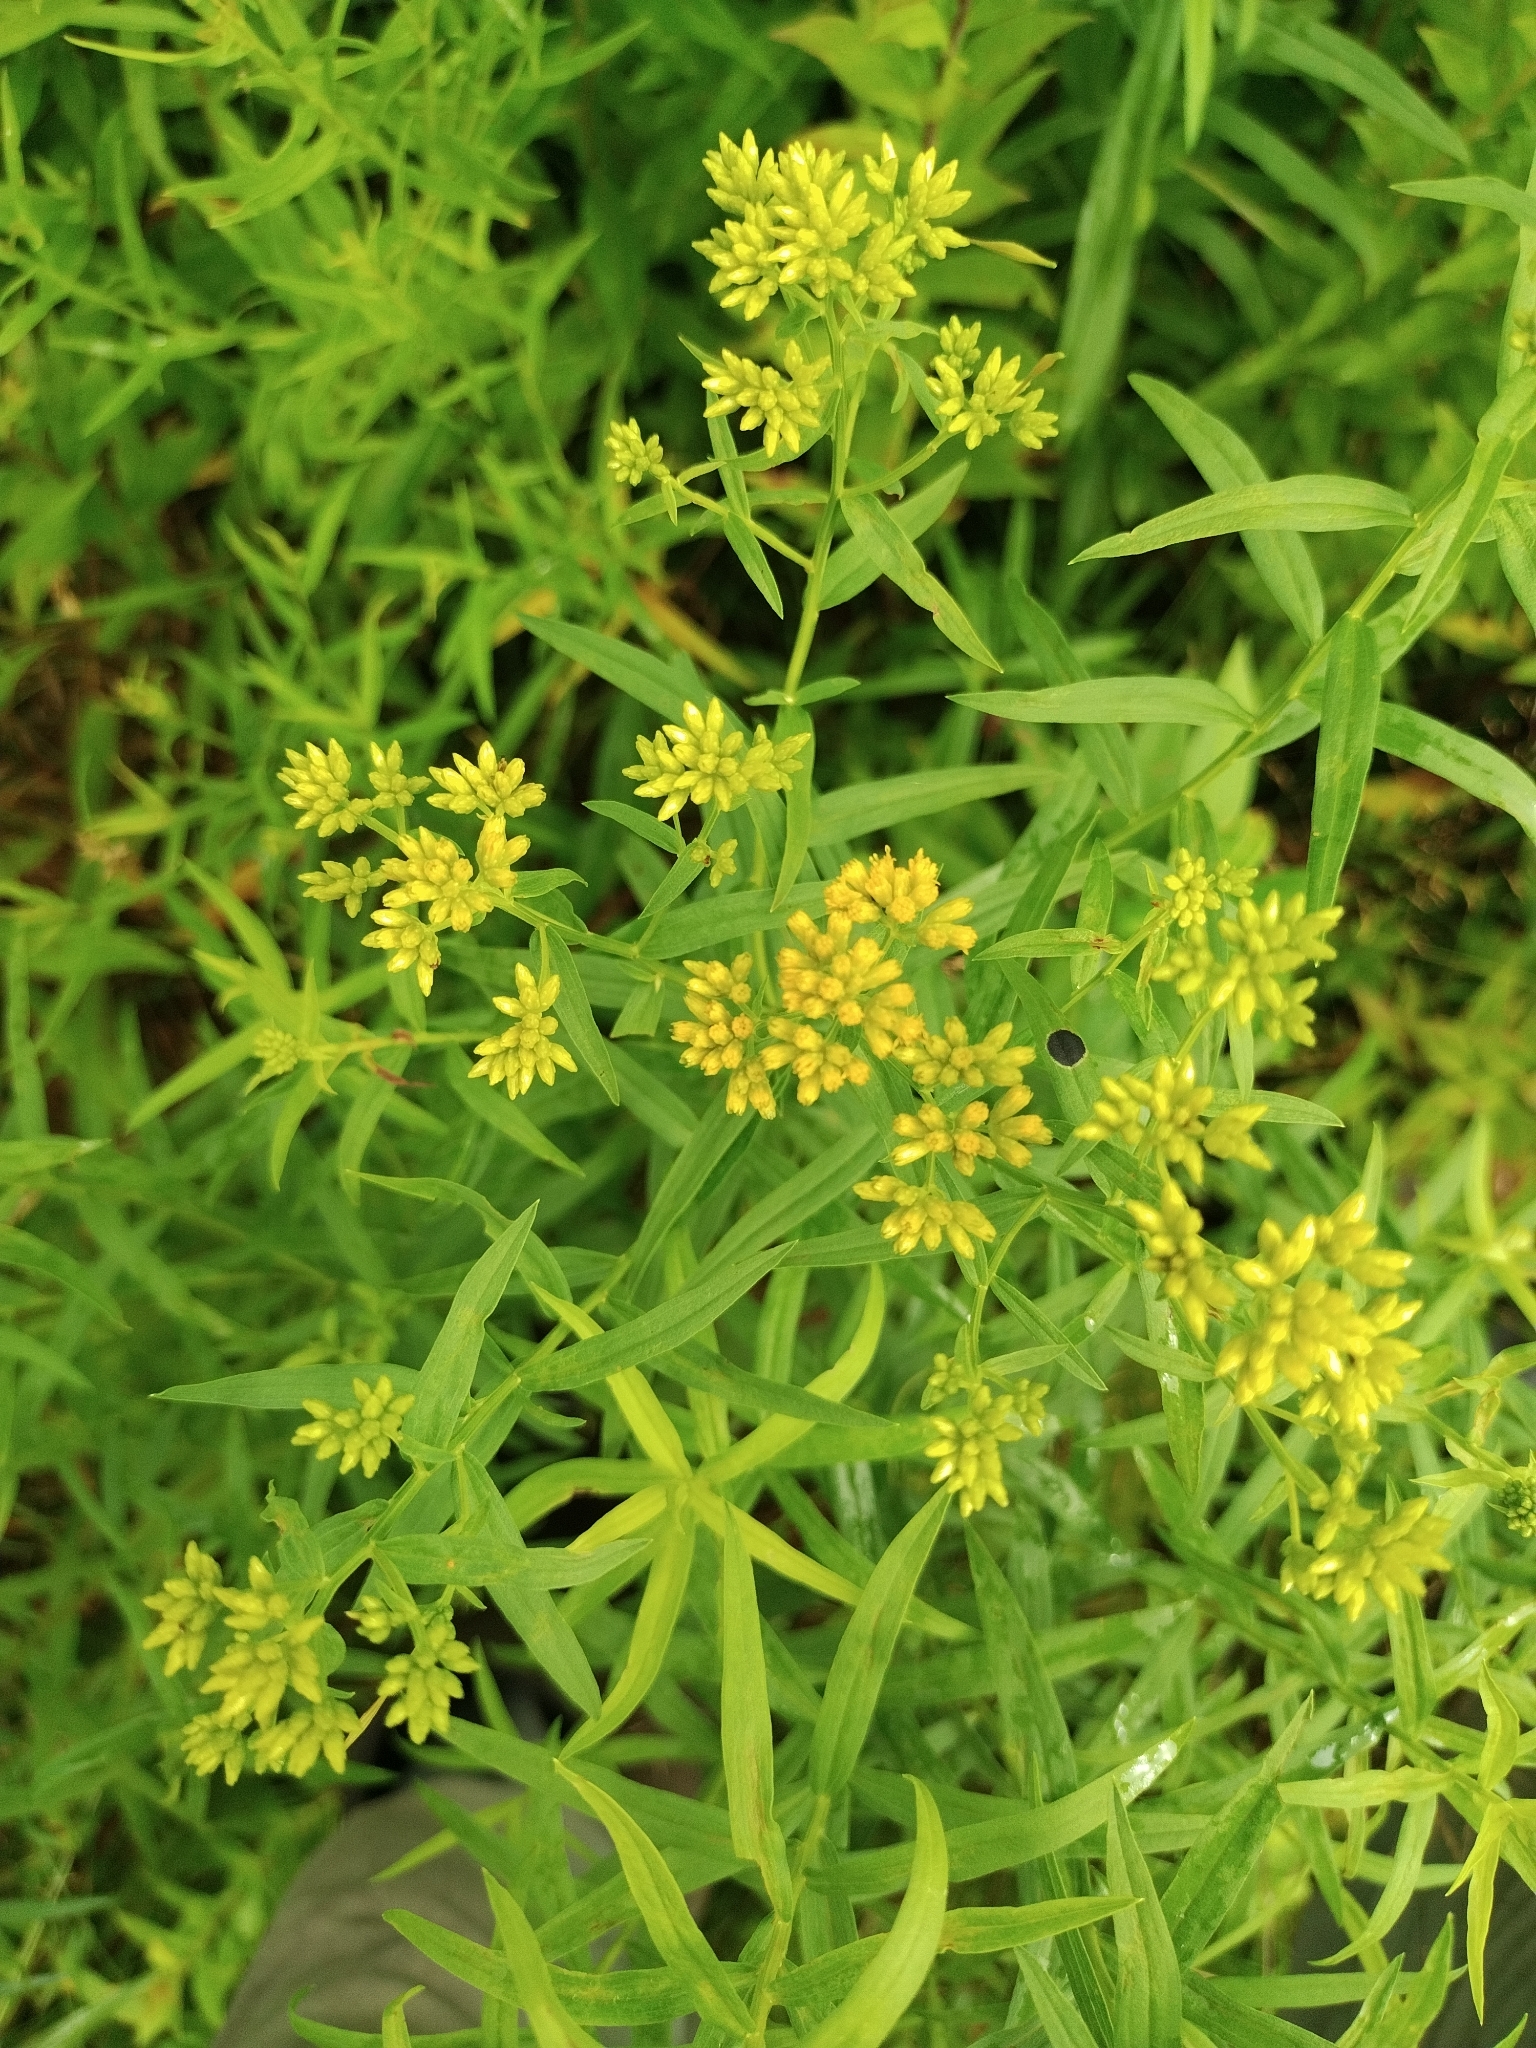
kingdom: Plantae
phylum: Tracheophyta
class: Magnoliopsida
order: Asterales
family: Asteraceae
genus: Euthamia
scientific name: Euthamia graminifolia
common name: Common goldentop
